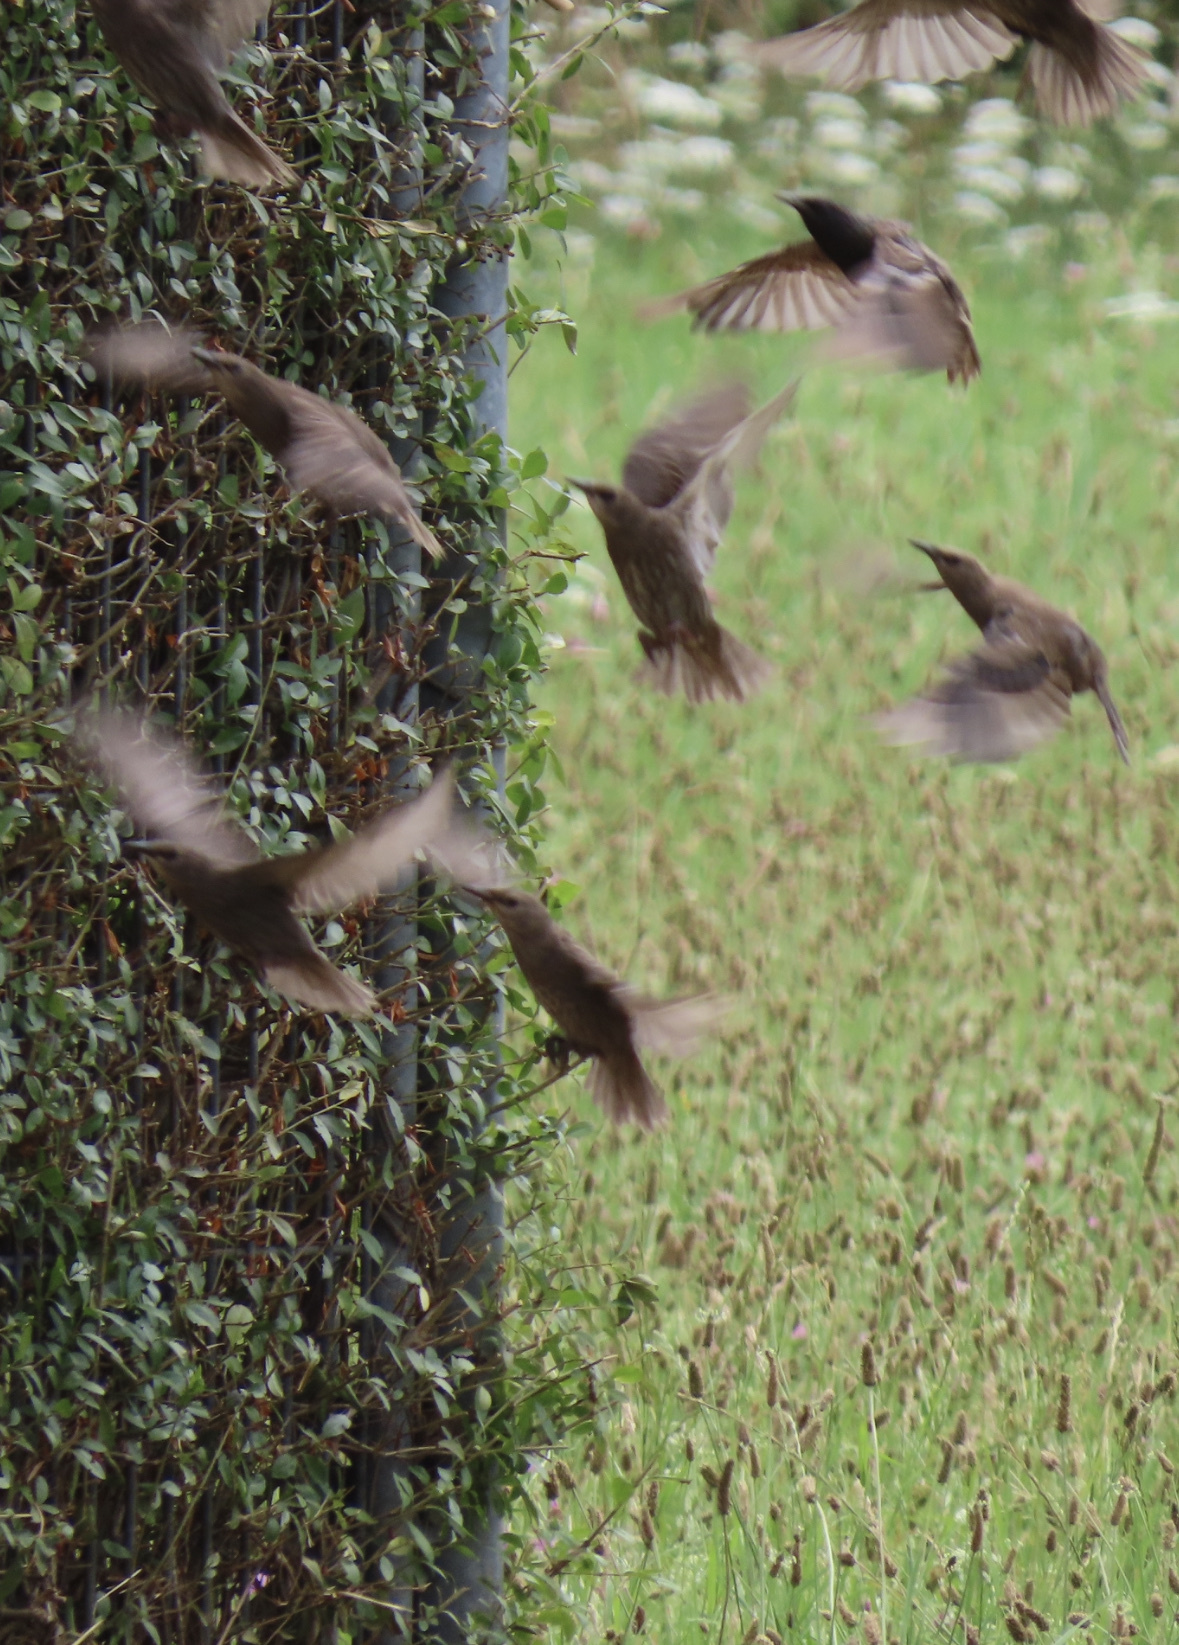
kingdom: Animalia
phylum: Chordata
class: Aves
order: Passeriformes
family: Sturnidae
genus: Sturnus
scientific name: Sturnus vulgaris
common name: Common starling
